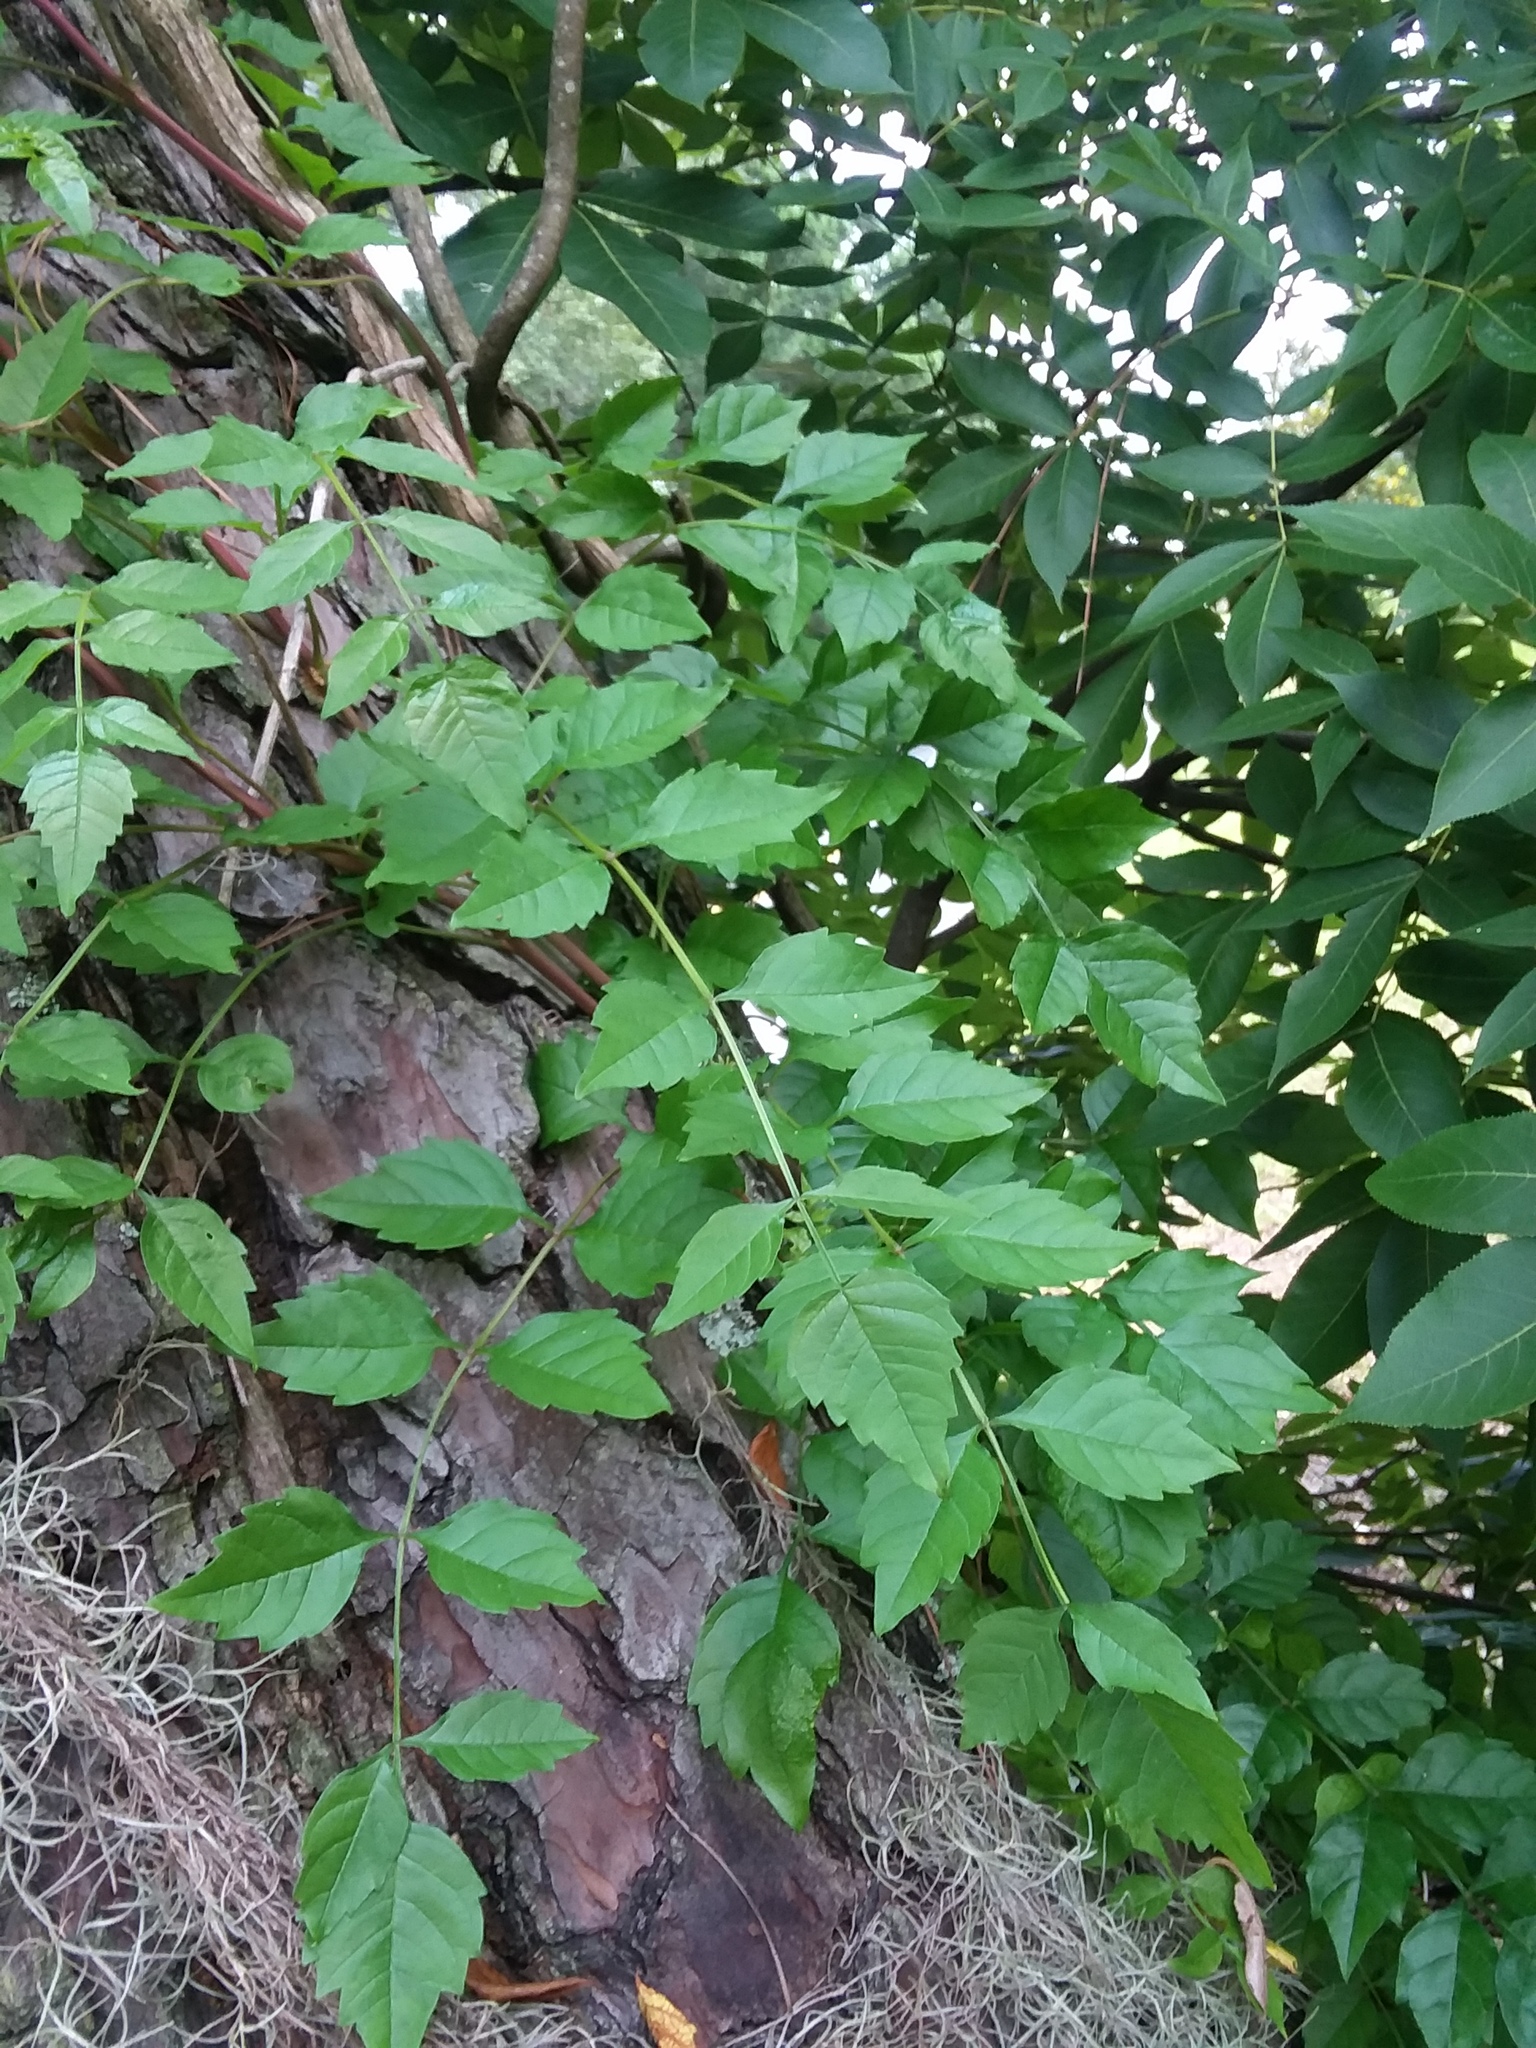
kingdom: Plantae
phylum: Tracheophyta
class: Magnoliopsida
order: Lamiales
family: Bignoniaceae
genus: Campsis
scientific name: Campsis radicans
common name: Trumpet-creeper
